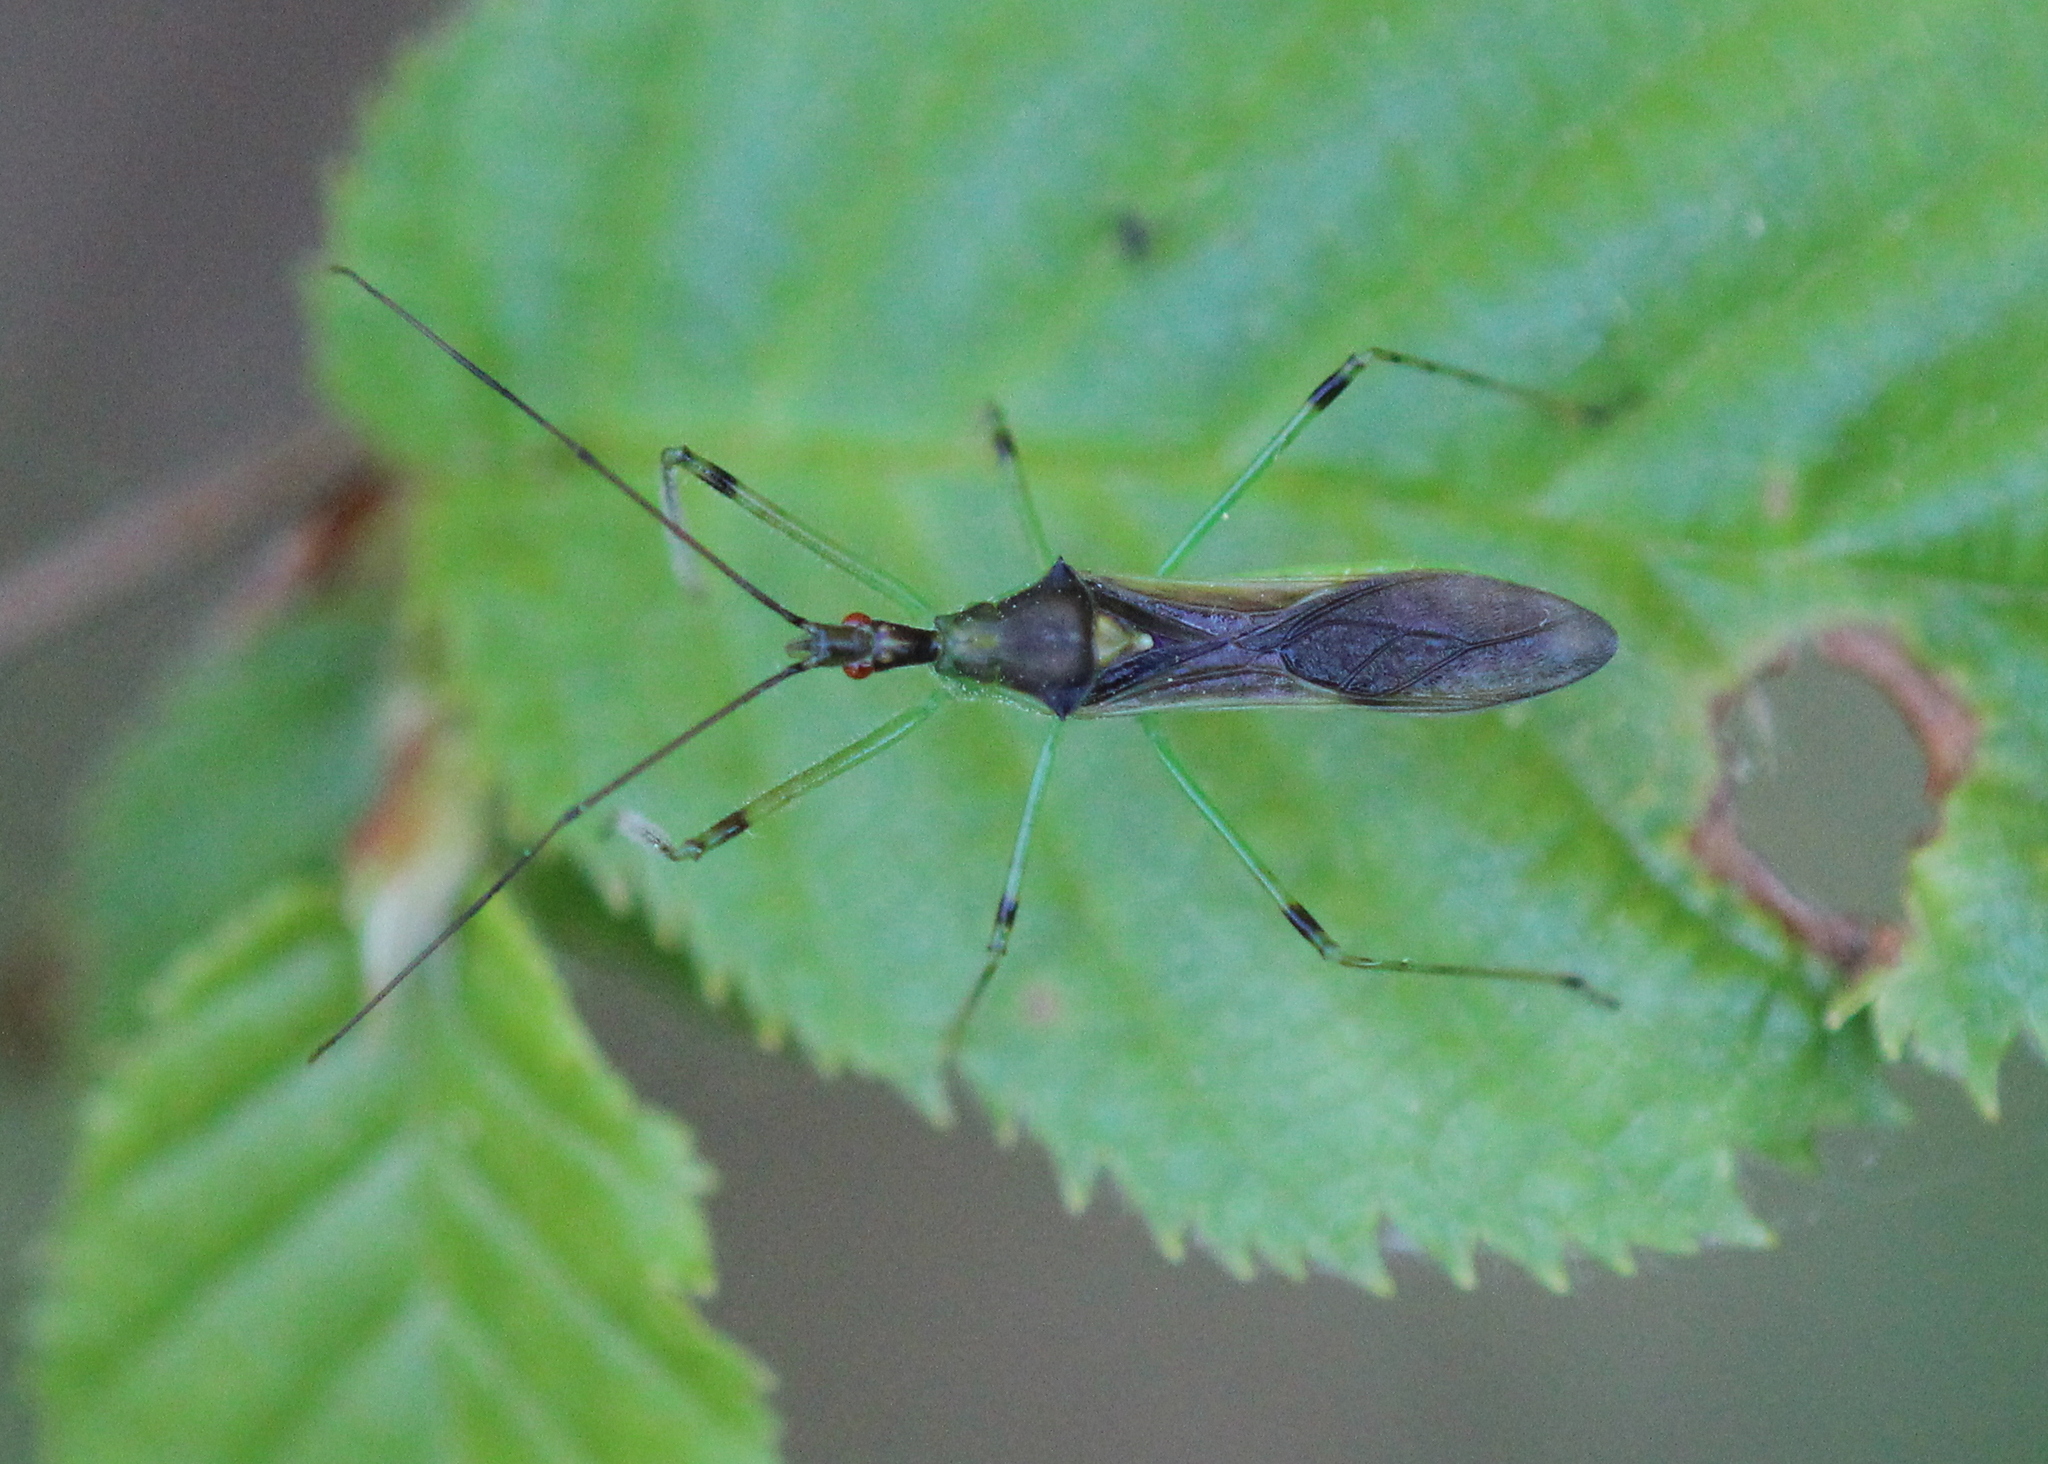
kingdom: Animalia
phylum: Arthropoda
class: Insecta
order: Hemiptera
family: Reduviidae
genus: Zelus
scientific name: Zelus luridus
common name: Pale green assassin bug
